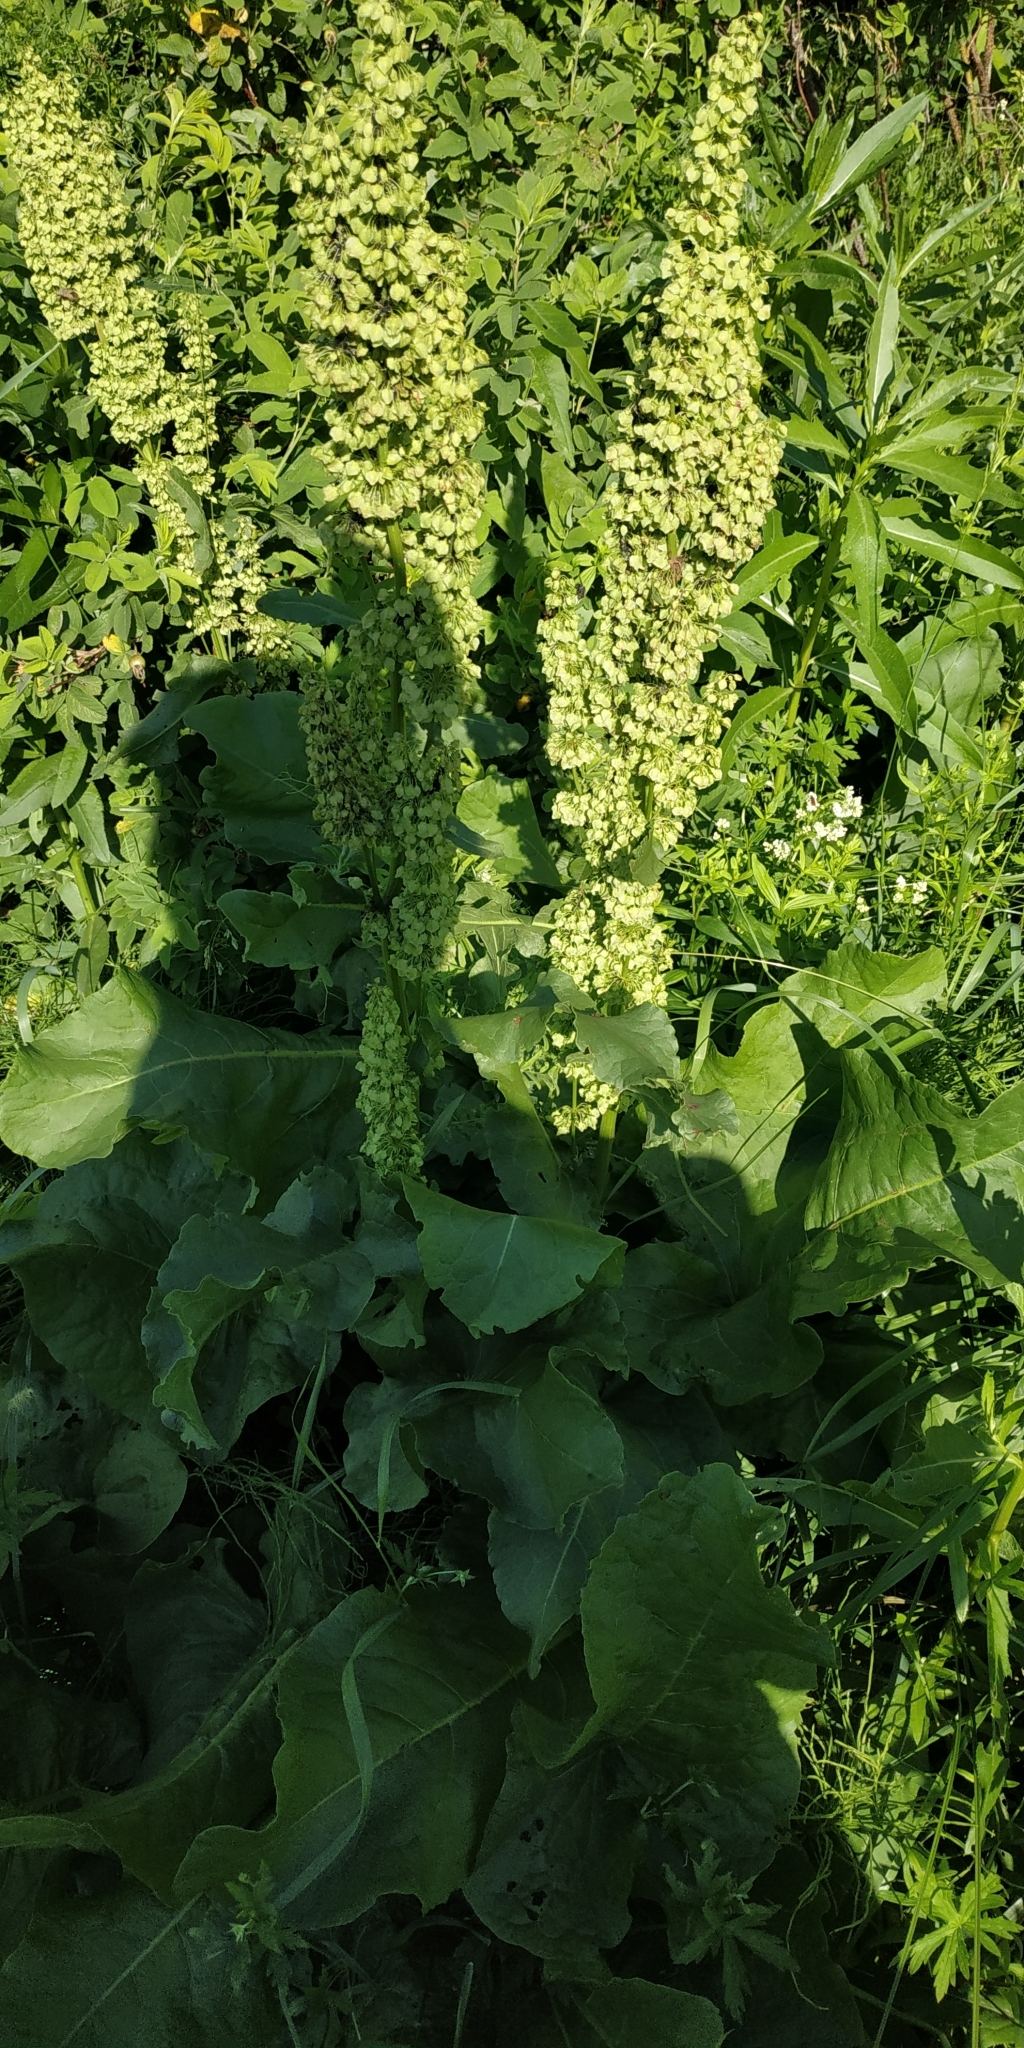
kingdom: Plantae
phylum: Tracheophyta
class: Magnoliopsida
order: Caryophyllales
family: Polygonaceae
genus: Rumex
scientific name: Rumex aquaticus
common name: Scottish dock
